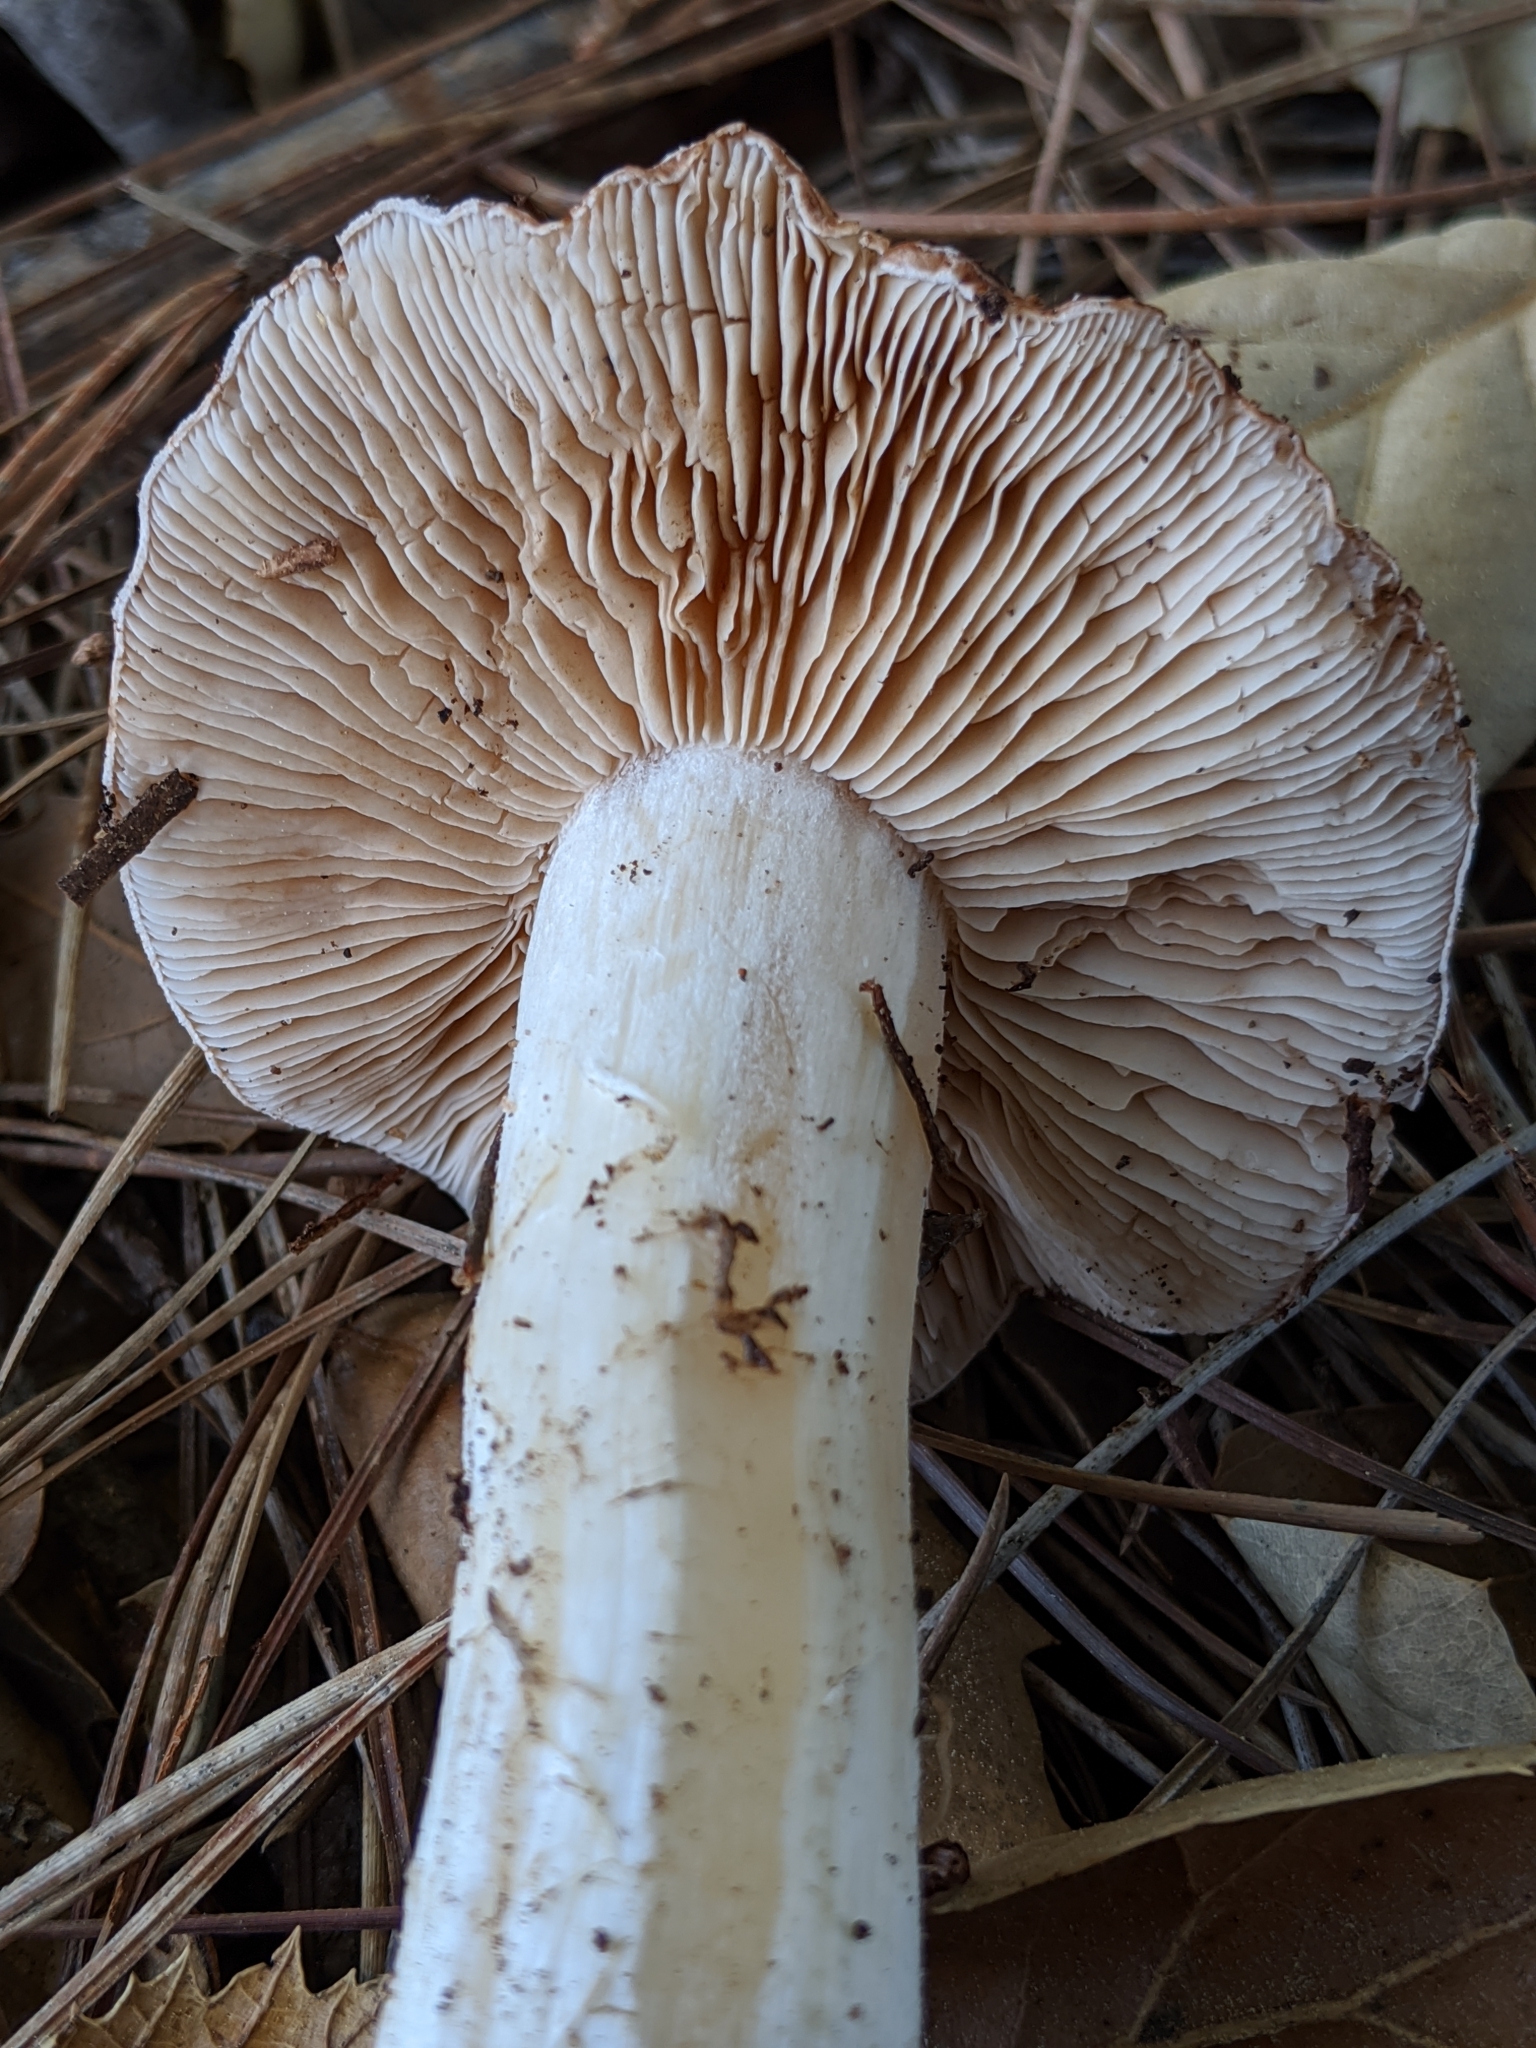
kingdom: Fungi
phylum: Basidiomycota
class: Agaricomycetes
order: Agaricales
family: Hymenogastraceae
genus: Hebeloma
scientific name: Hebeloma theobrominum
